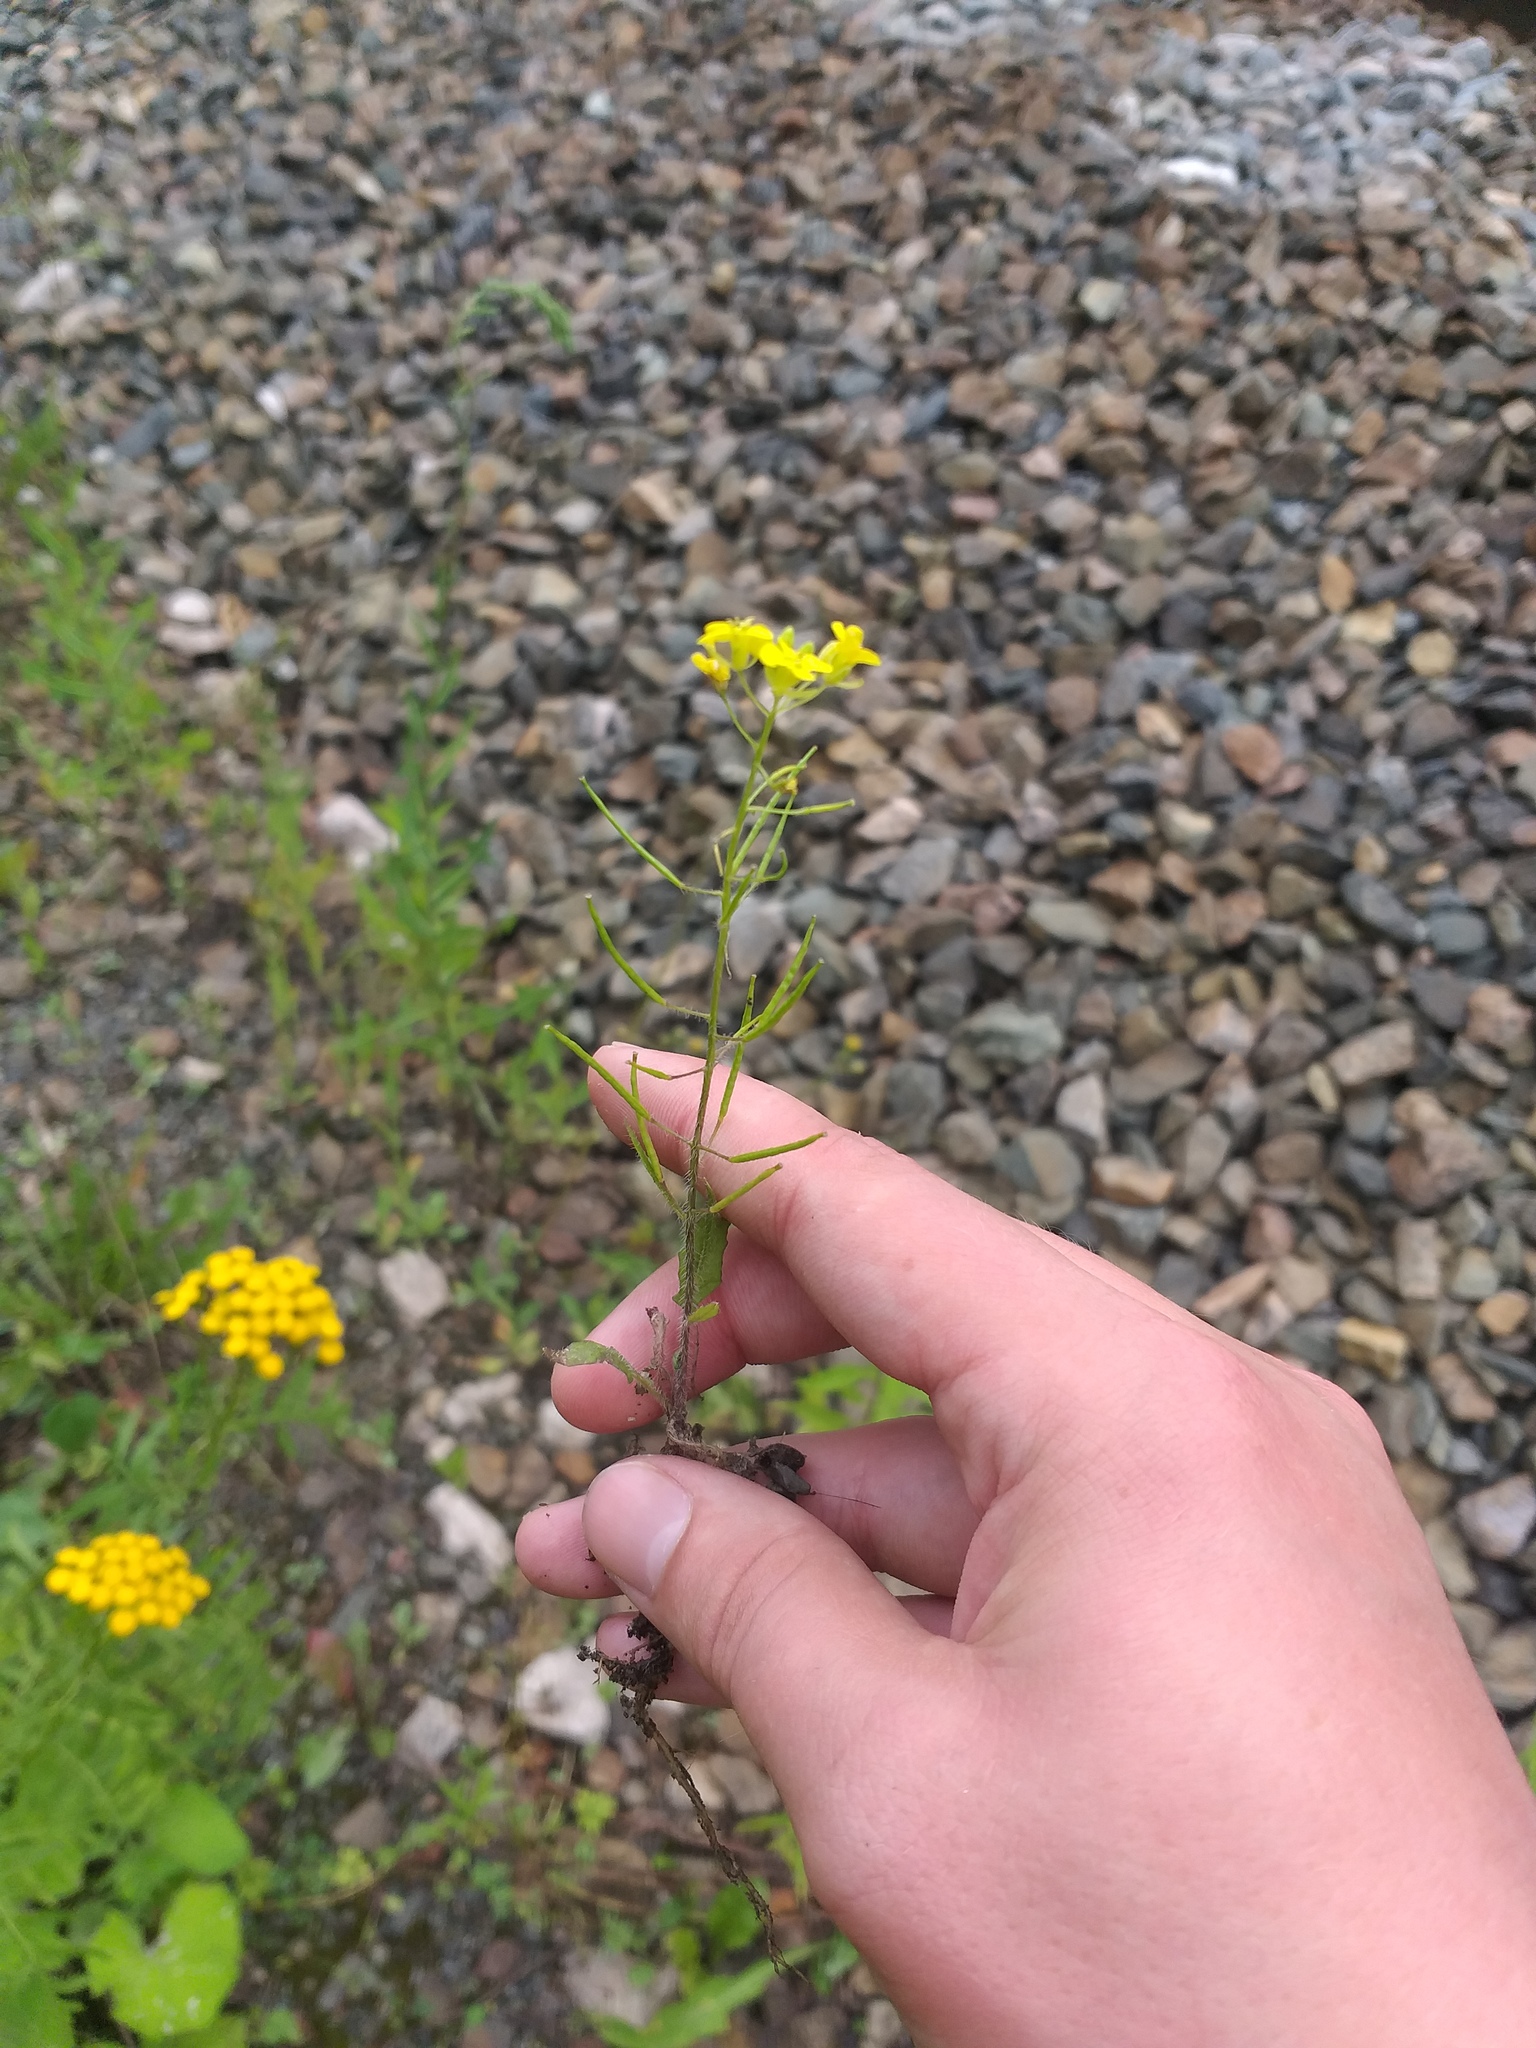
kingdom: Plantae
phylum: Tracheophyta
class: Magnoliopsida
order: Brassicales
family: Brassicaceae
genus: Sisymbrium
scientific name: Sisymbrium loeselii
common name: False london-rocket
